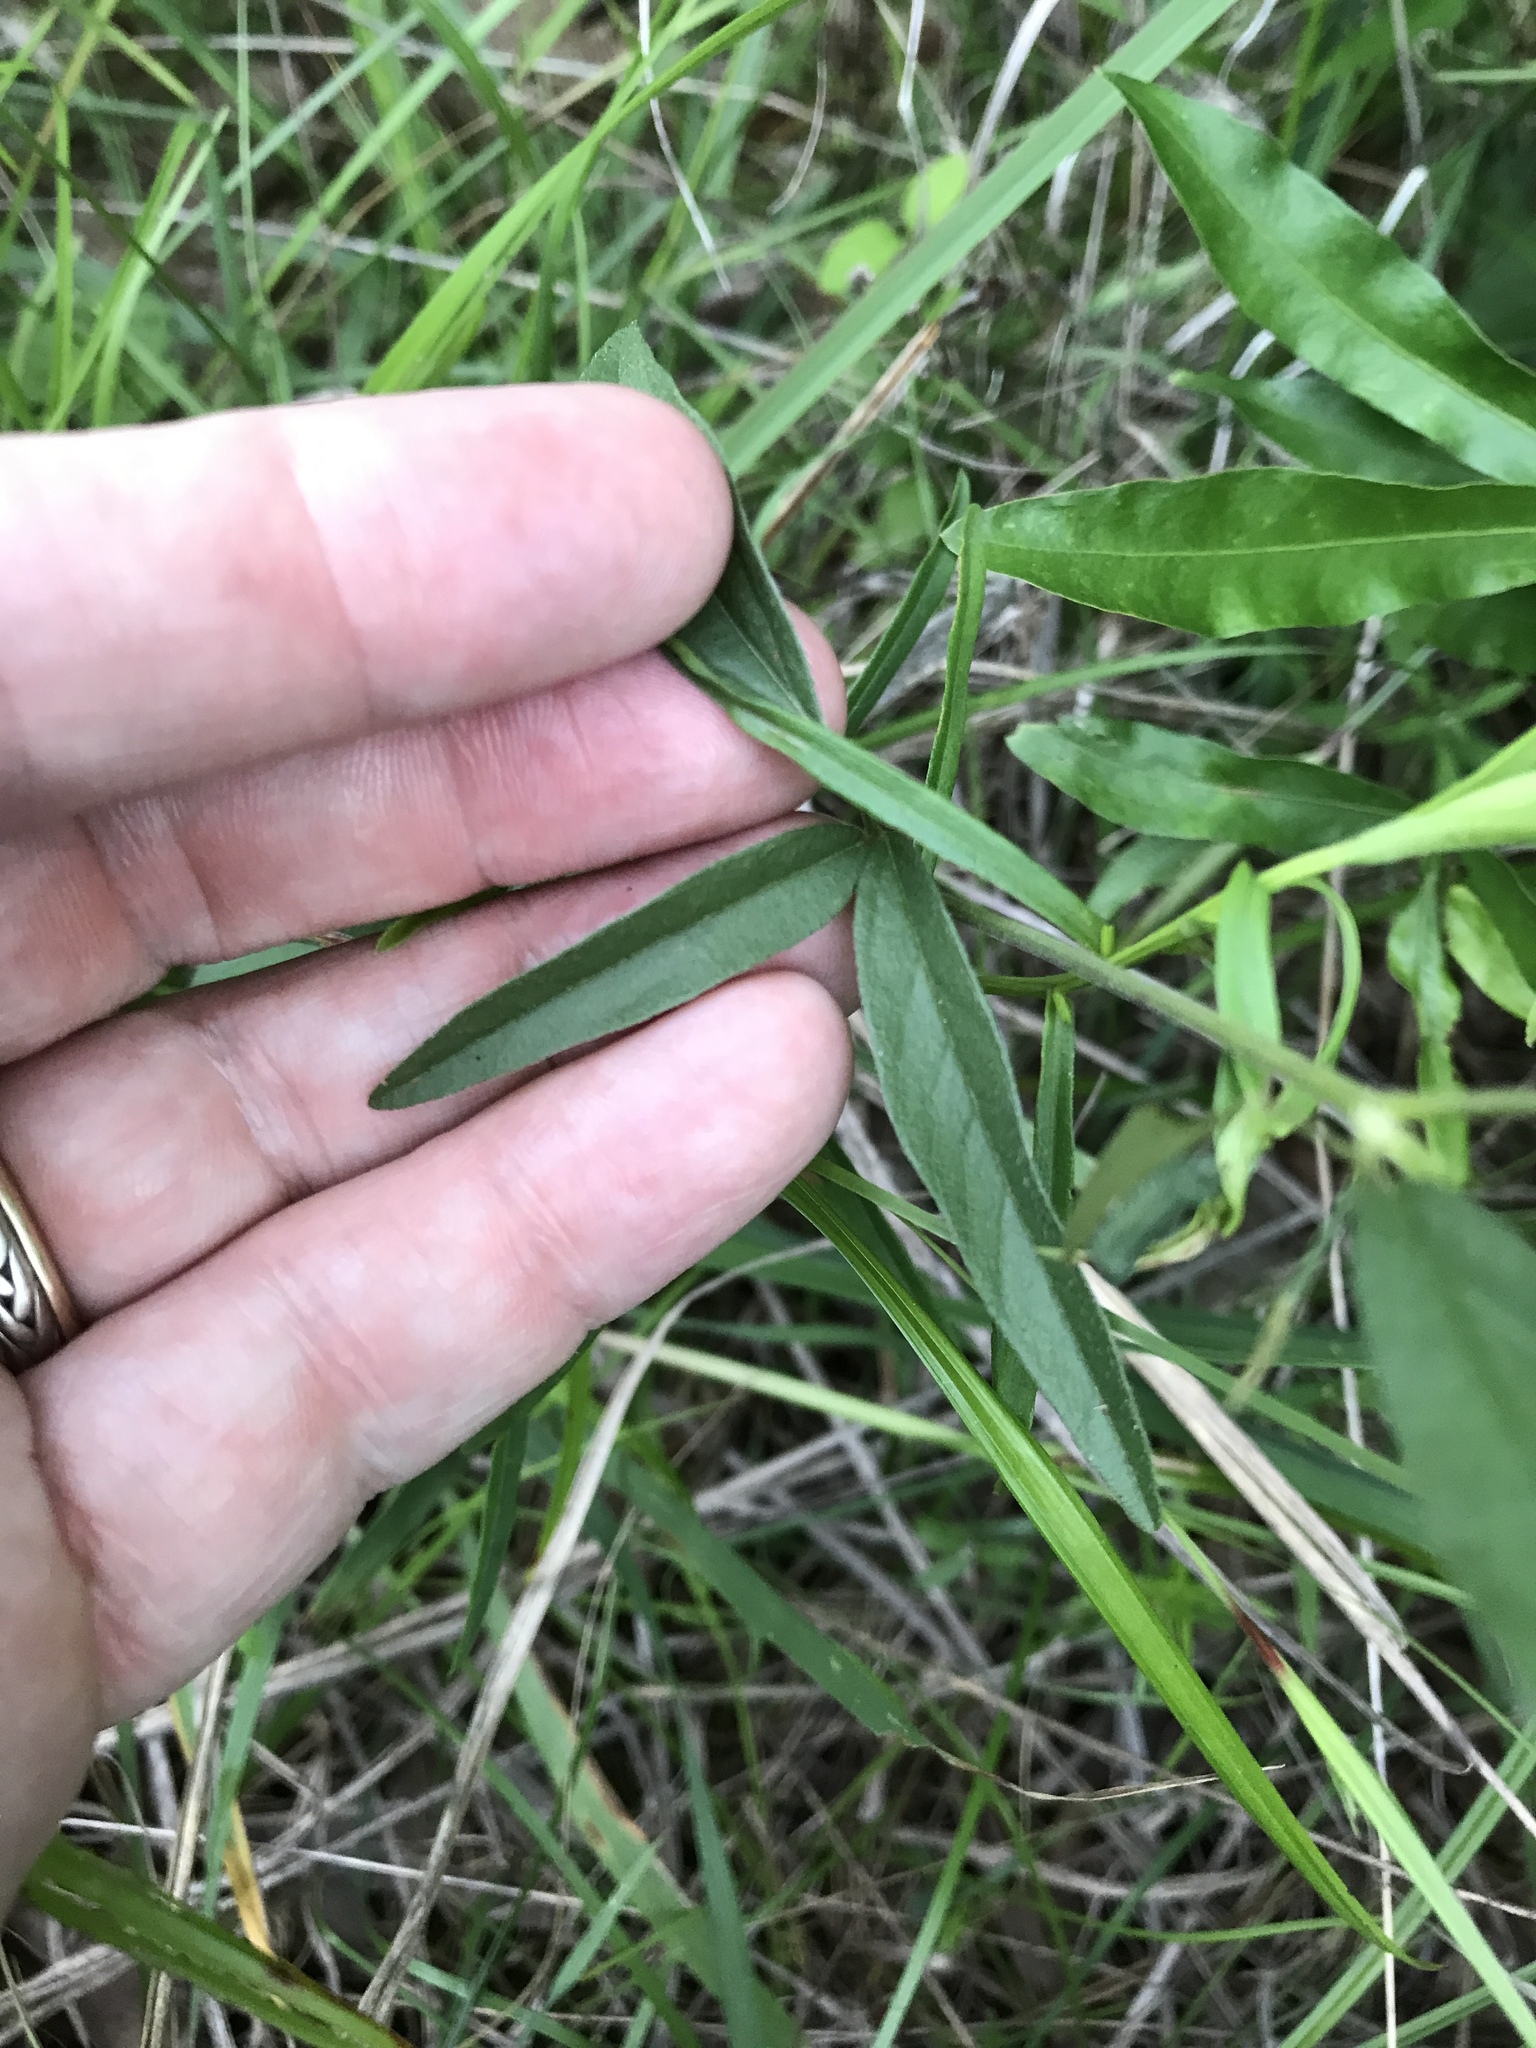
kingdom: Plantae
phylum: Tracheophyta
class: Magnoliopsida
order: Fabales
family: Fabaceae
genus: Orbexilum
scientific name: Orbexilum psoralioides
